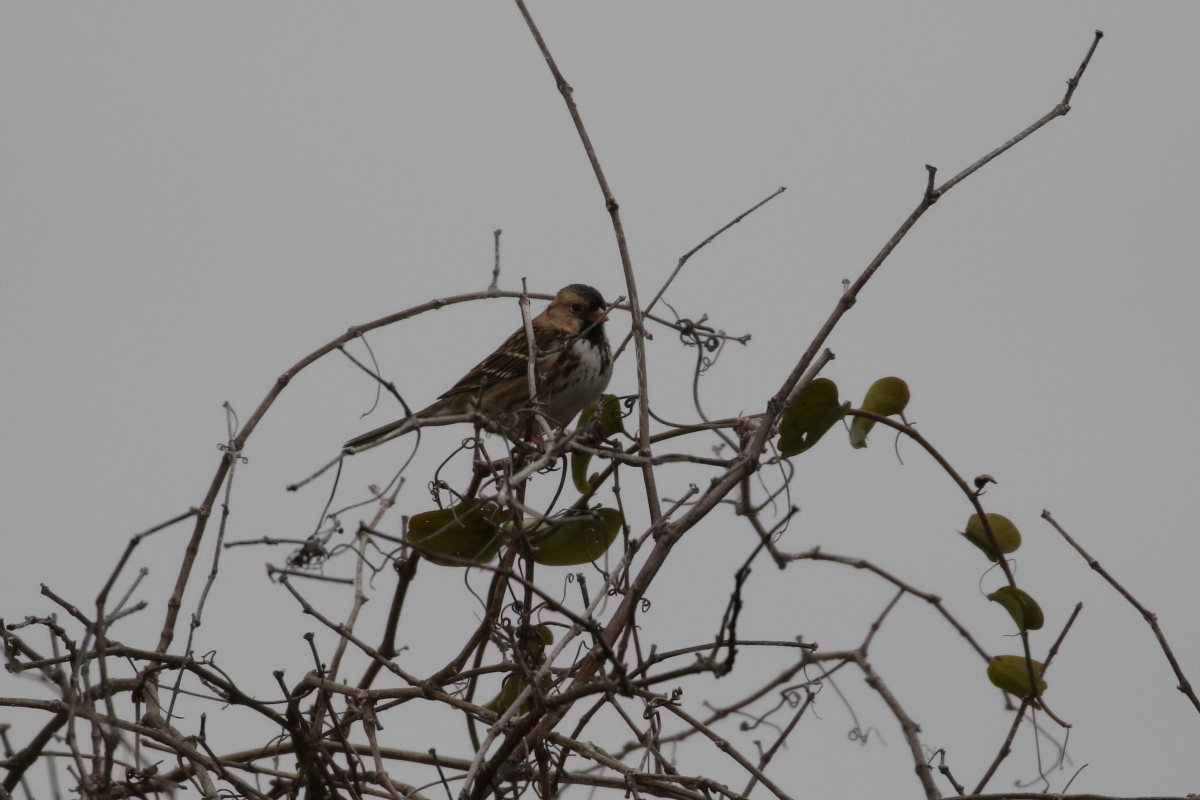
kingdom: Animalia
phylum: Chordata
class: Aves
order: Passeriformes
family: Passerellidae
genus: Zonotrichia
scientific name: Zonotrichia querula
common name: Harris's sparrow
